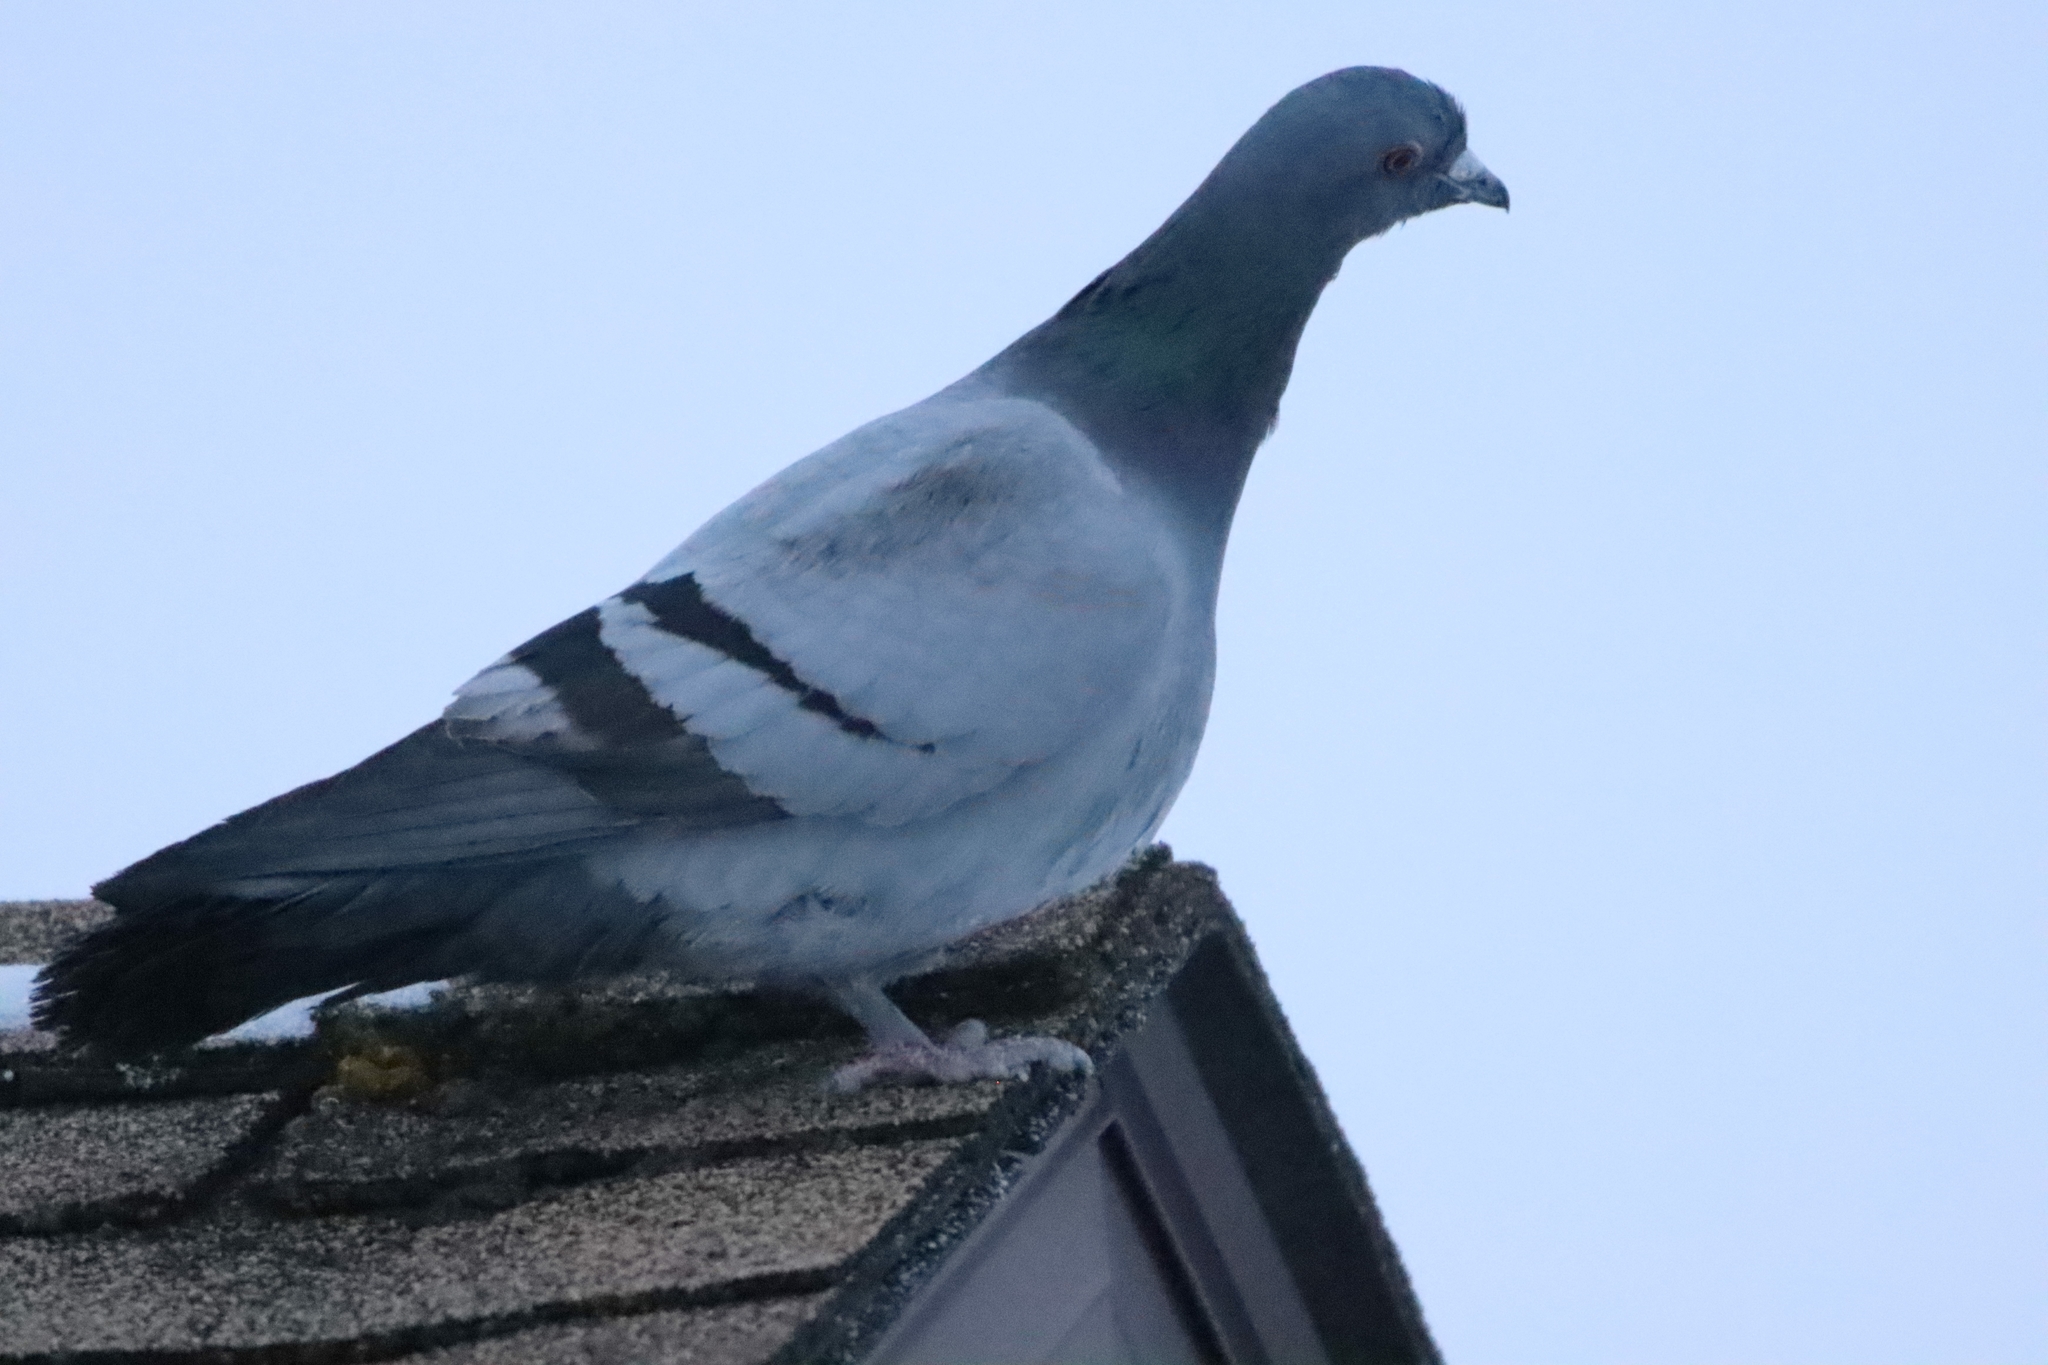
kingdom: Animalia
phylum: Chordata
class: Aves
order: Columbiformes
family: Columbidae
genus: Columba
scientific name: Columba livia
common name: Rock pigeon
